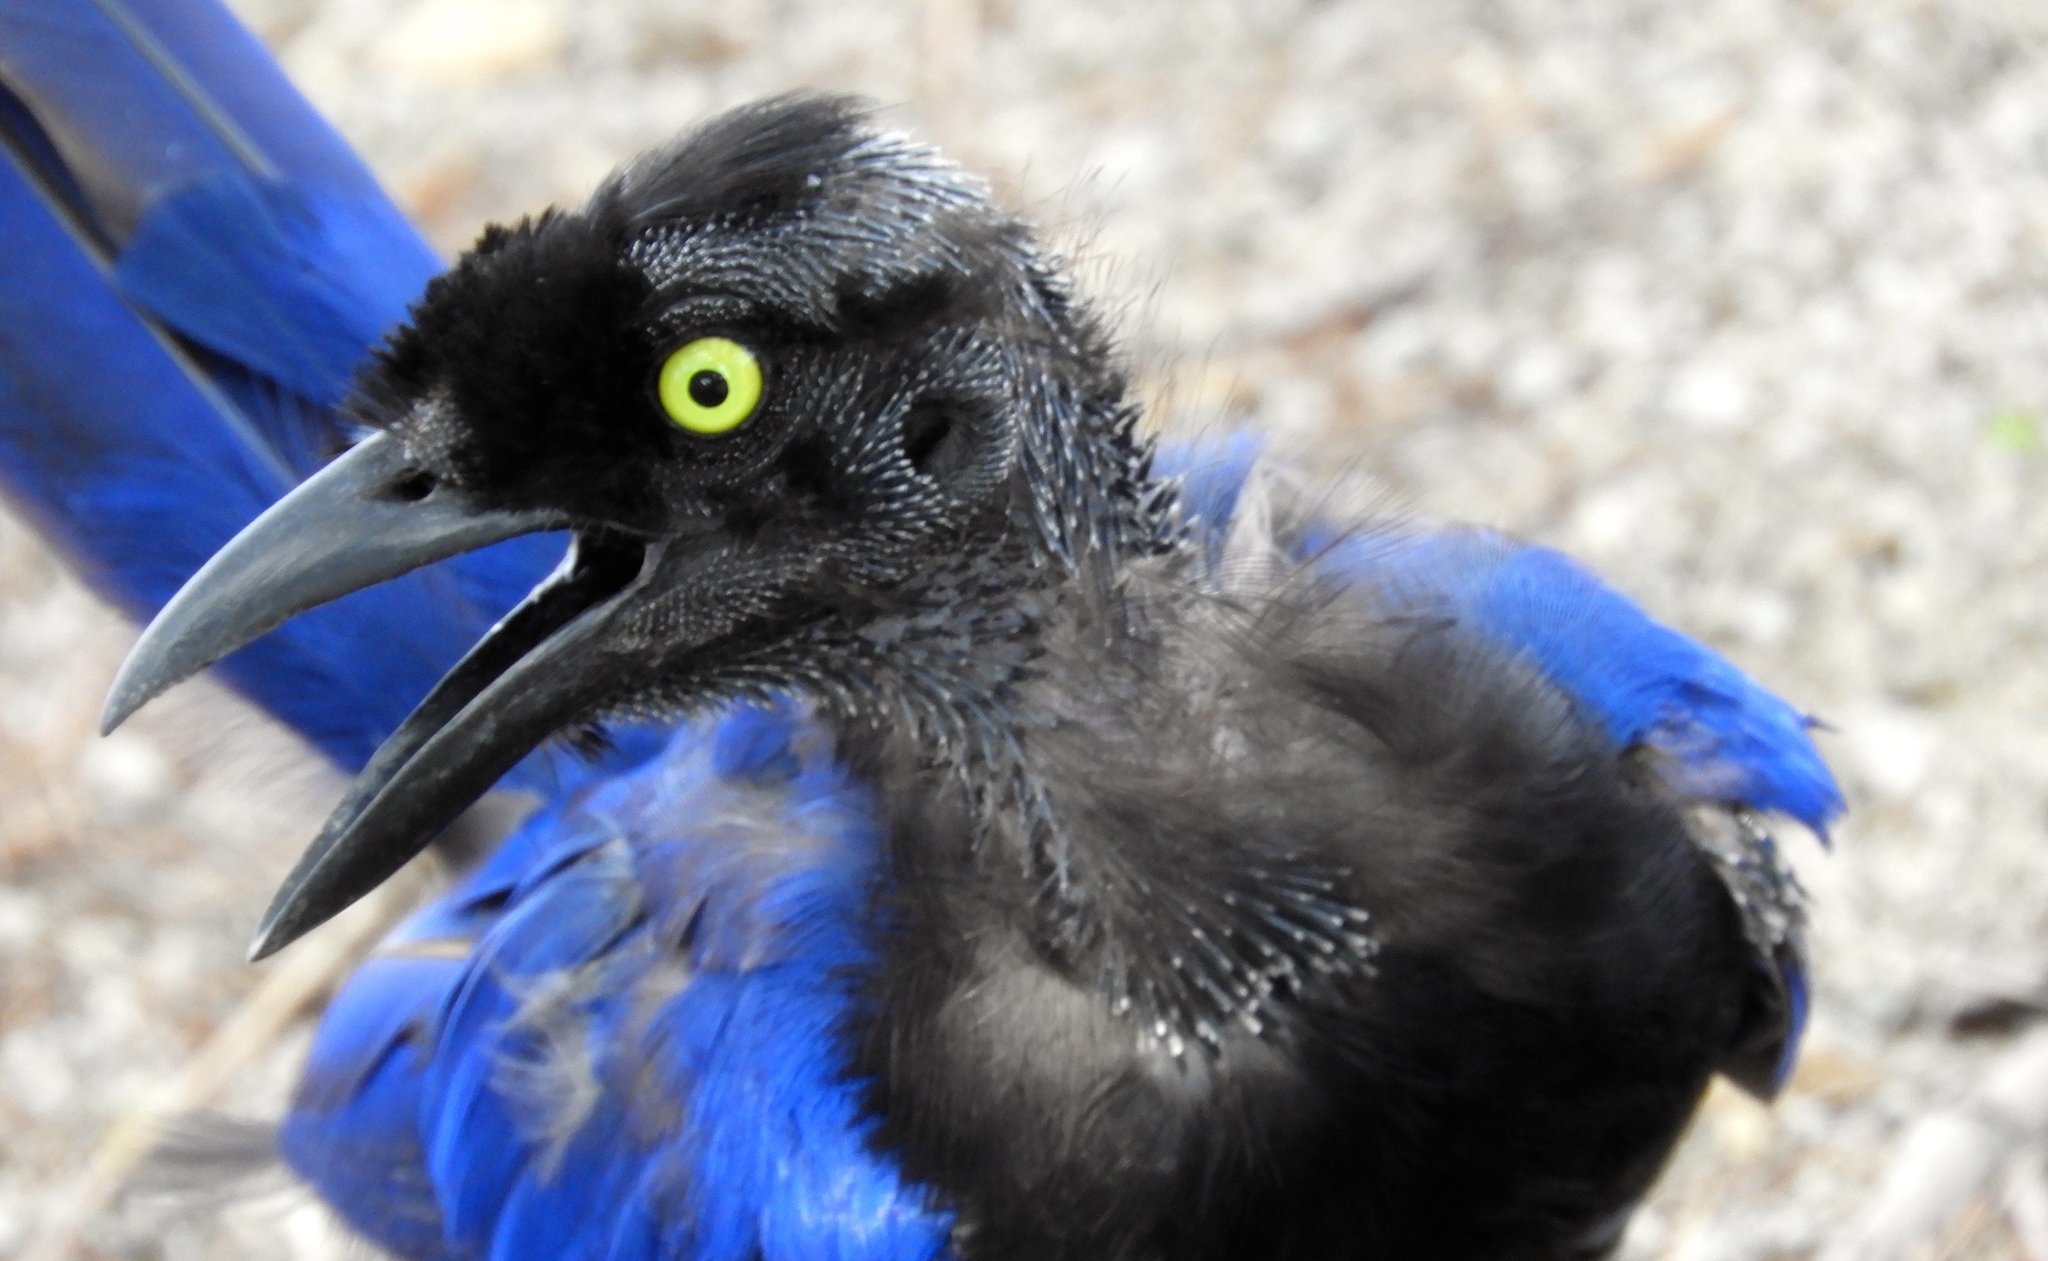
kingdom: Animalia
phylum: Chordata
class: Aves
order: Passeriformes
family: Corvidae
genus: Cyanocorax
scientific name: Cyanocorax beecheii
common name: Purplish-backed jay
